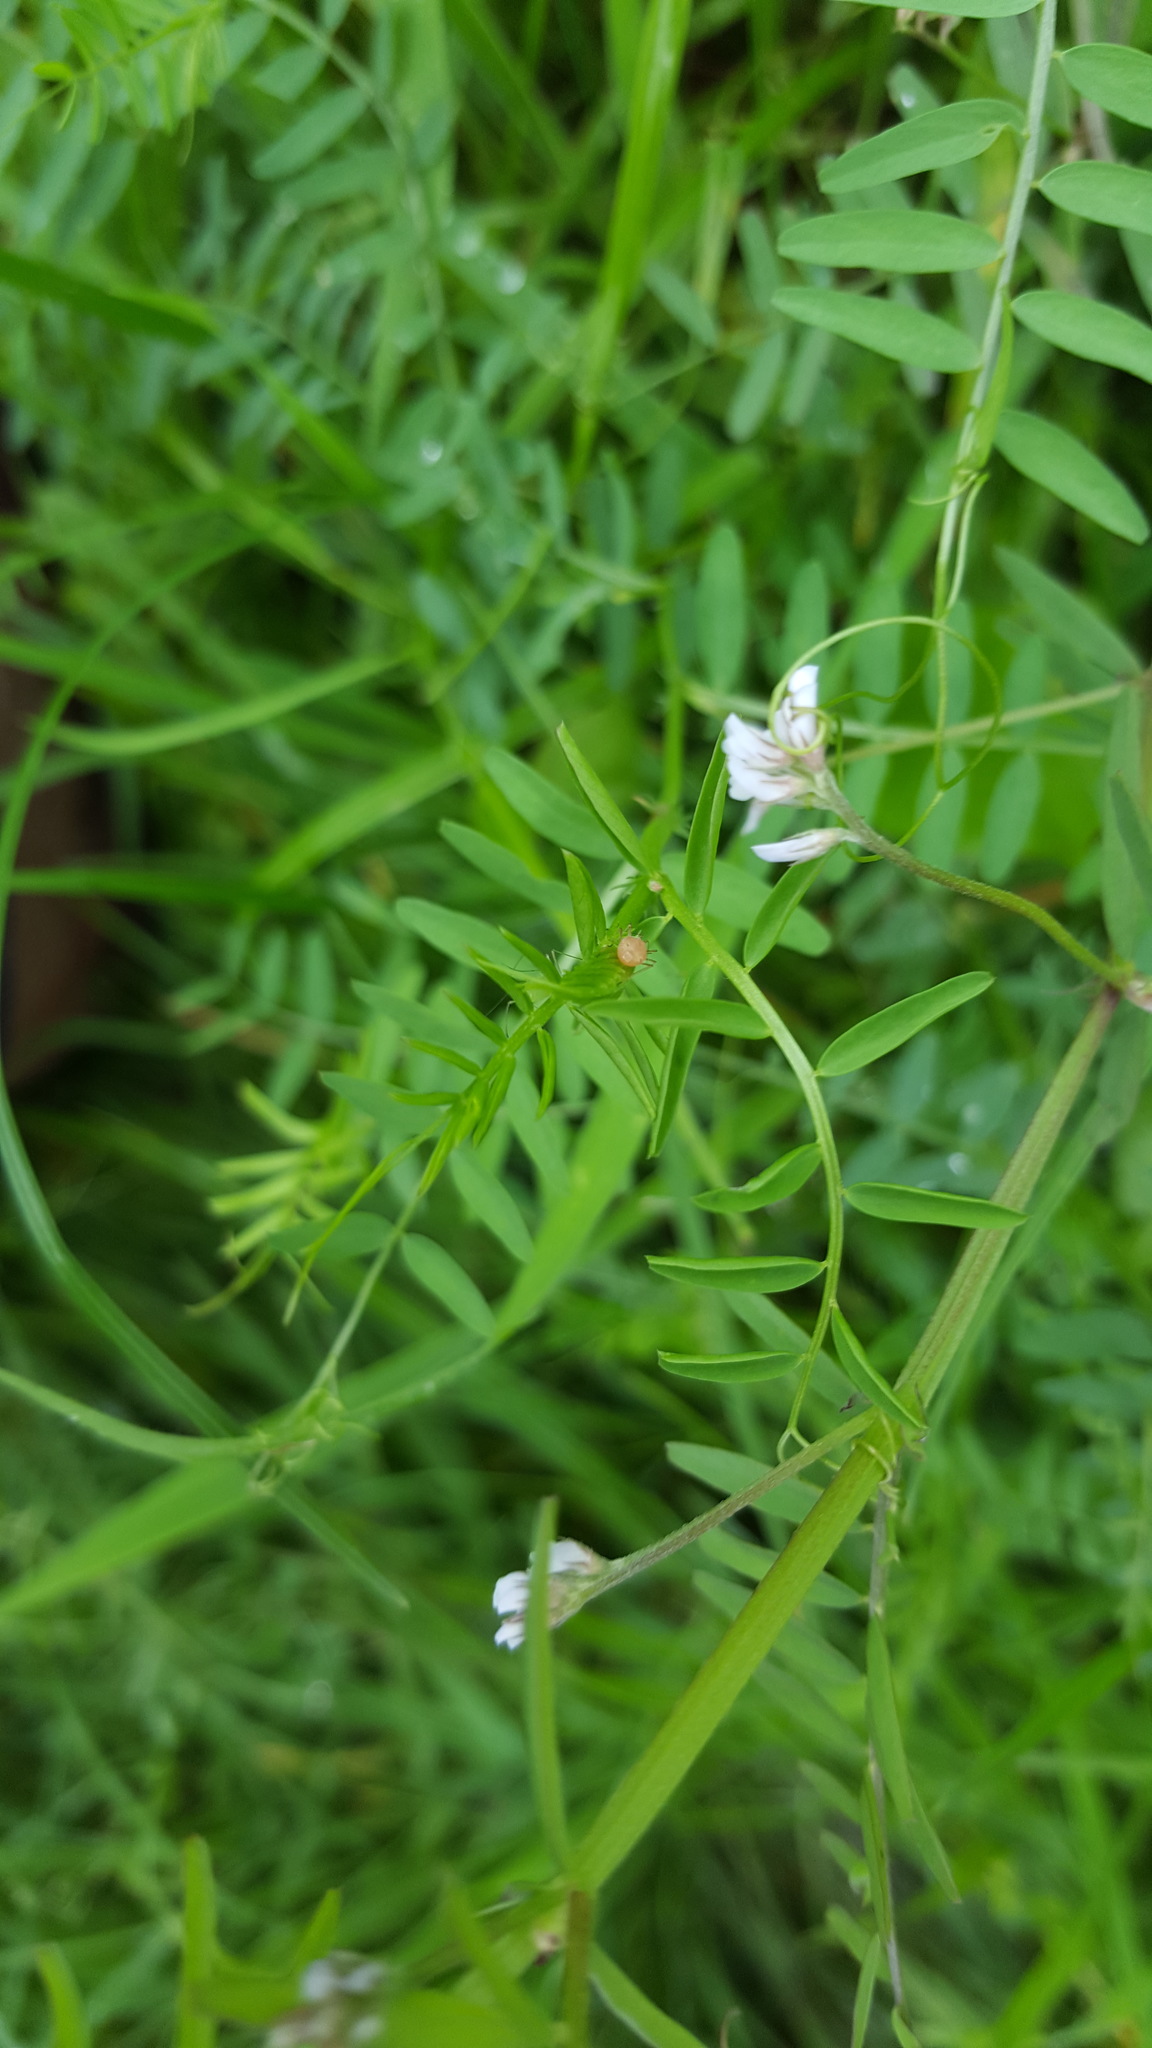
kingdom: Plantae
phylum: Tracheophyta
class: Magnoliopsida
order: Fabales
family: Fabaceae
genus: Vicia
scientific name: Vicia hirsuta
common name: Tiny vetch
